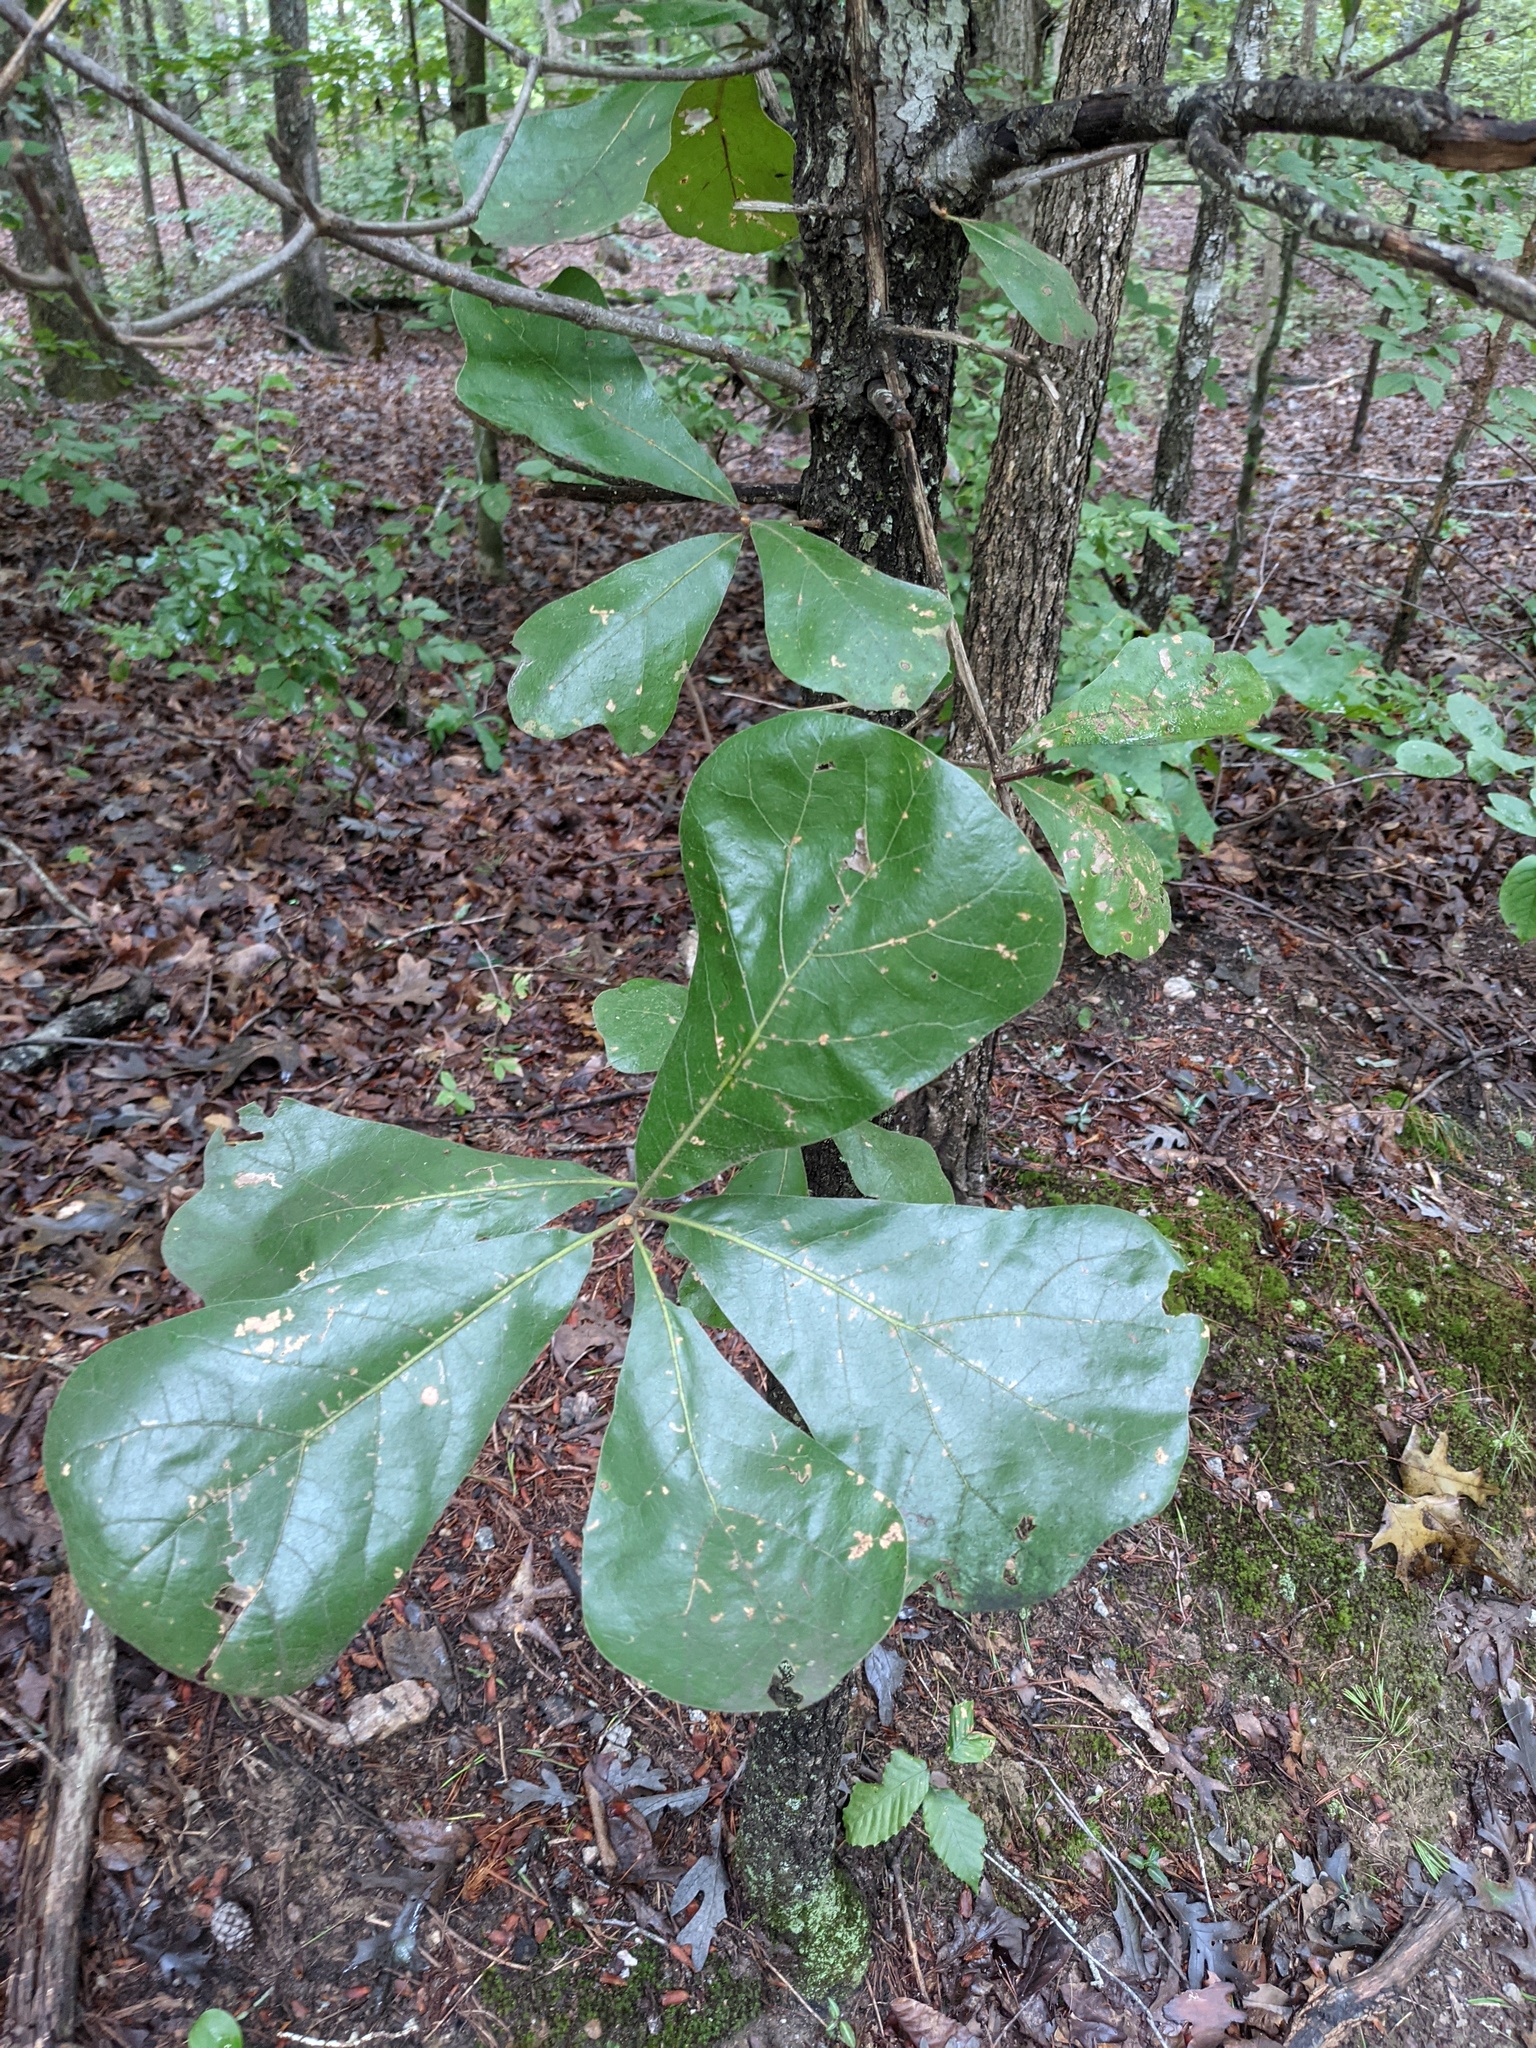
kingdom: Plantae
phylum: Tracheophyta
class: Magnoliopsida
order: Fagales
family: Fagaceae
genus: Quercus
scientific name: Quercus marilandica
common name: Blackjack oak
